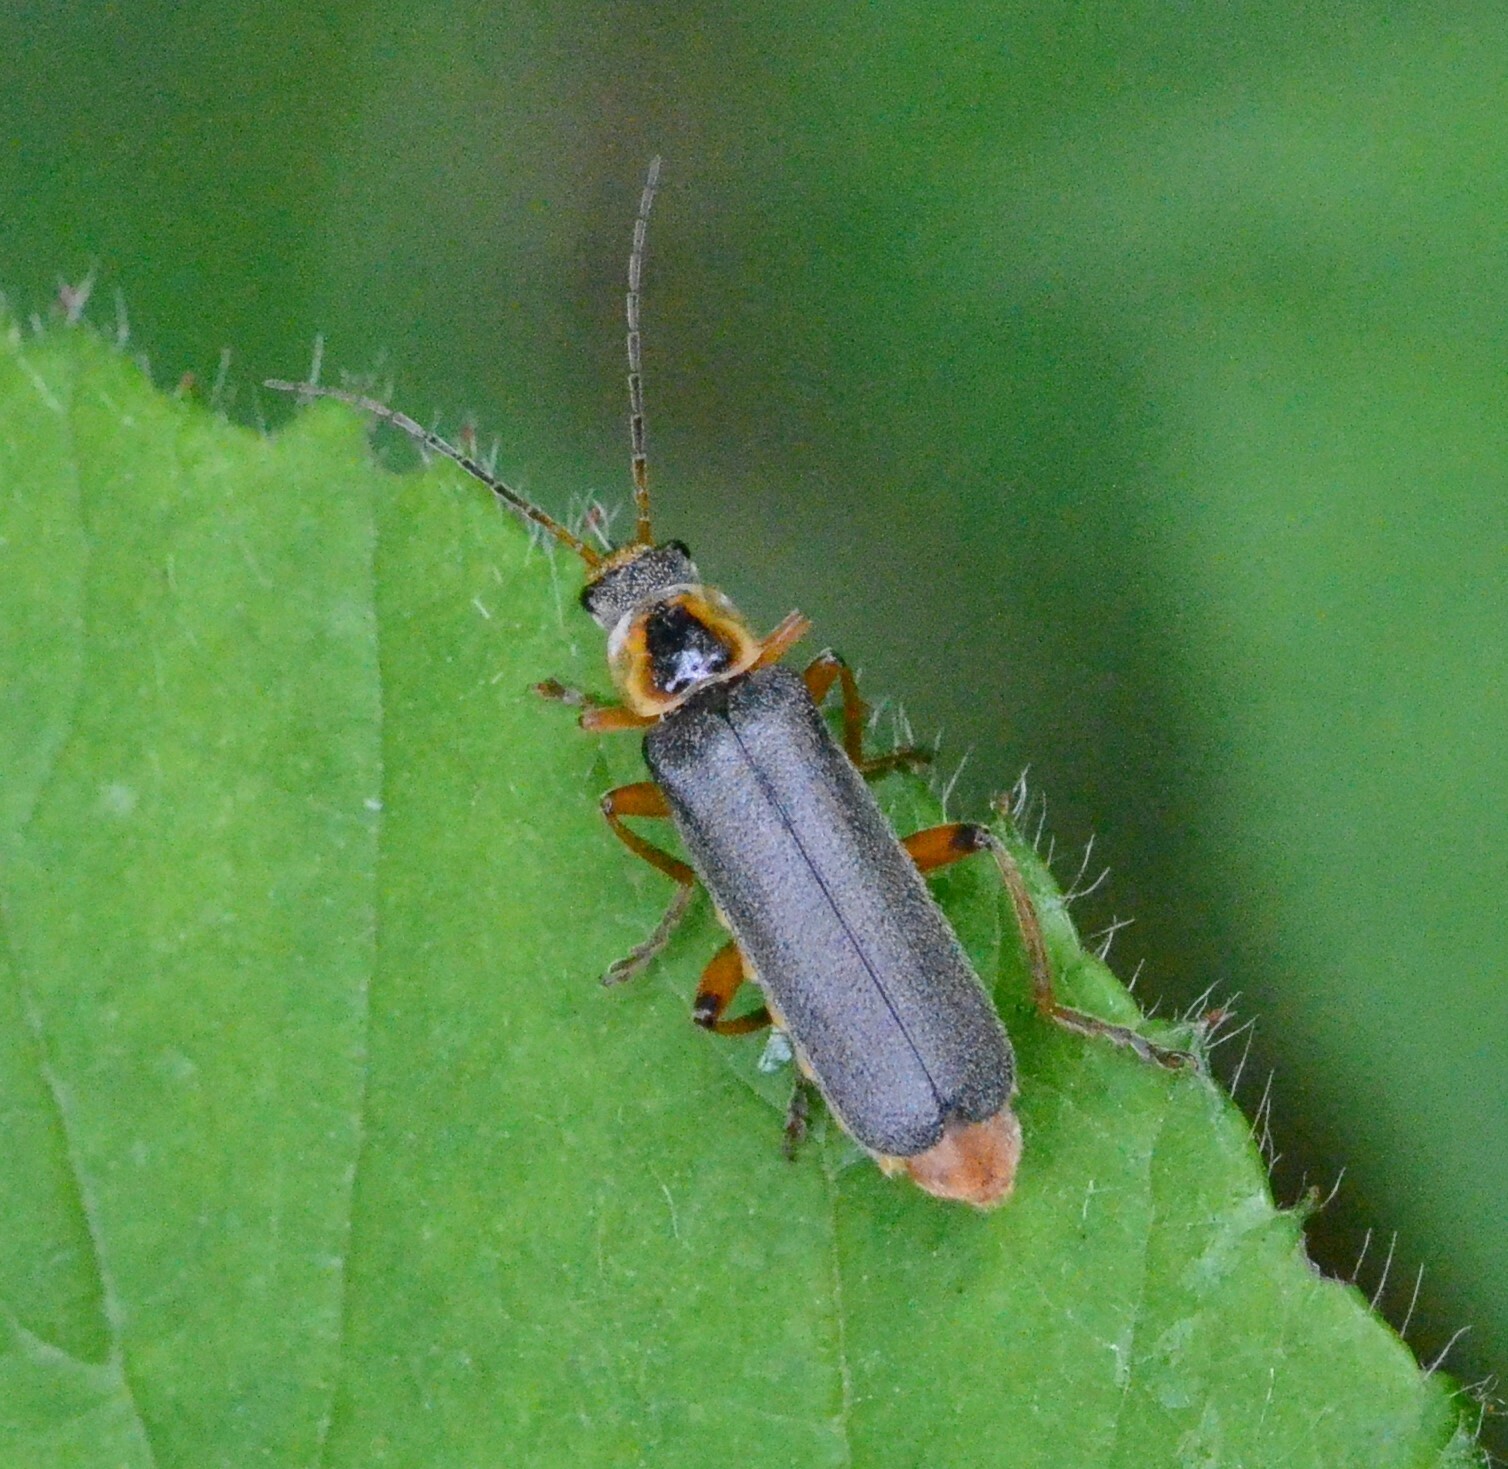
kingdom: Animalia
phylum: Arthropoda
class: Insecta
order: Coleoptera
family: Cantharidae
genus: Cantharis
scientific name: Cantharis nigricans
